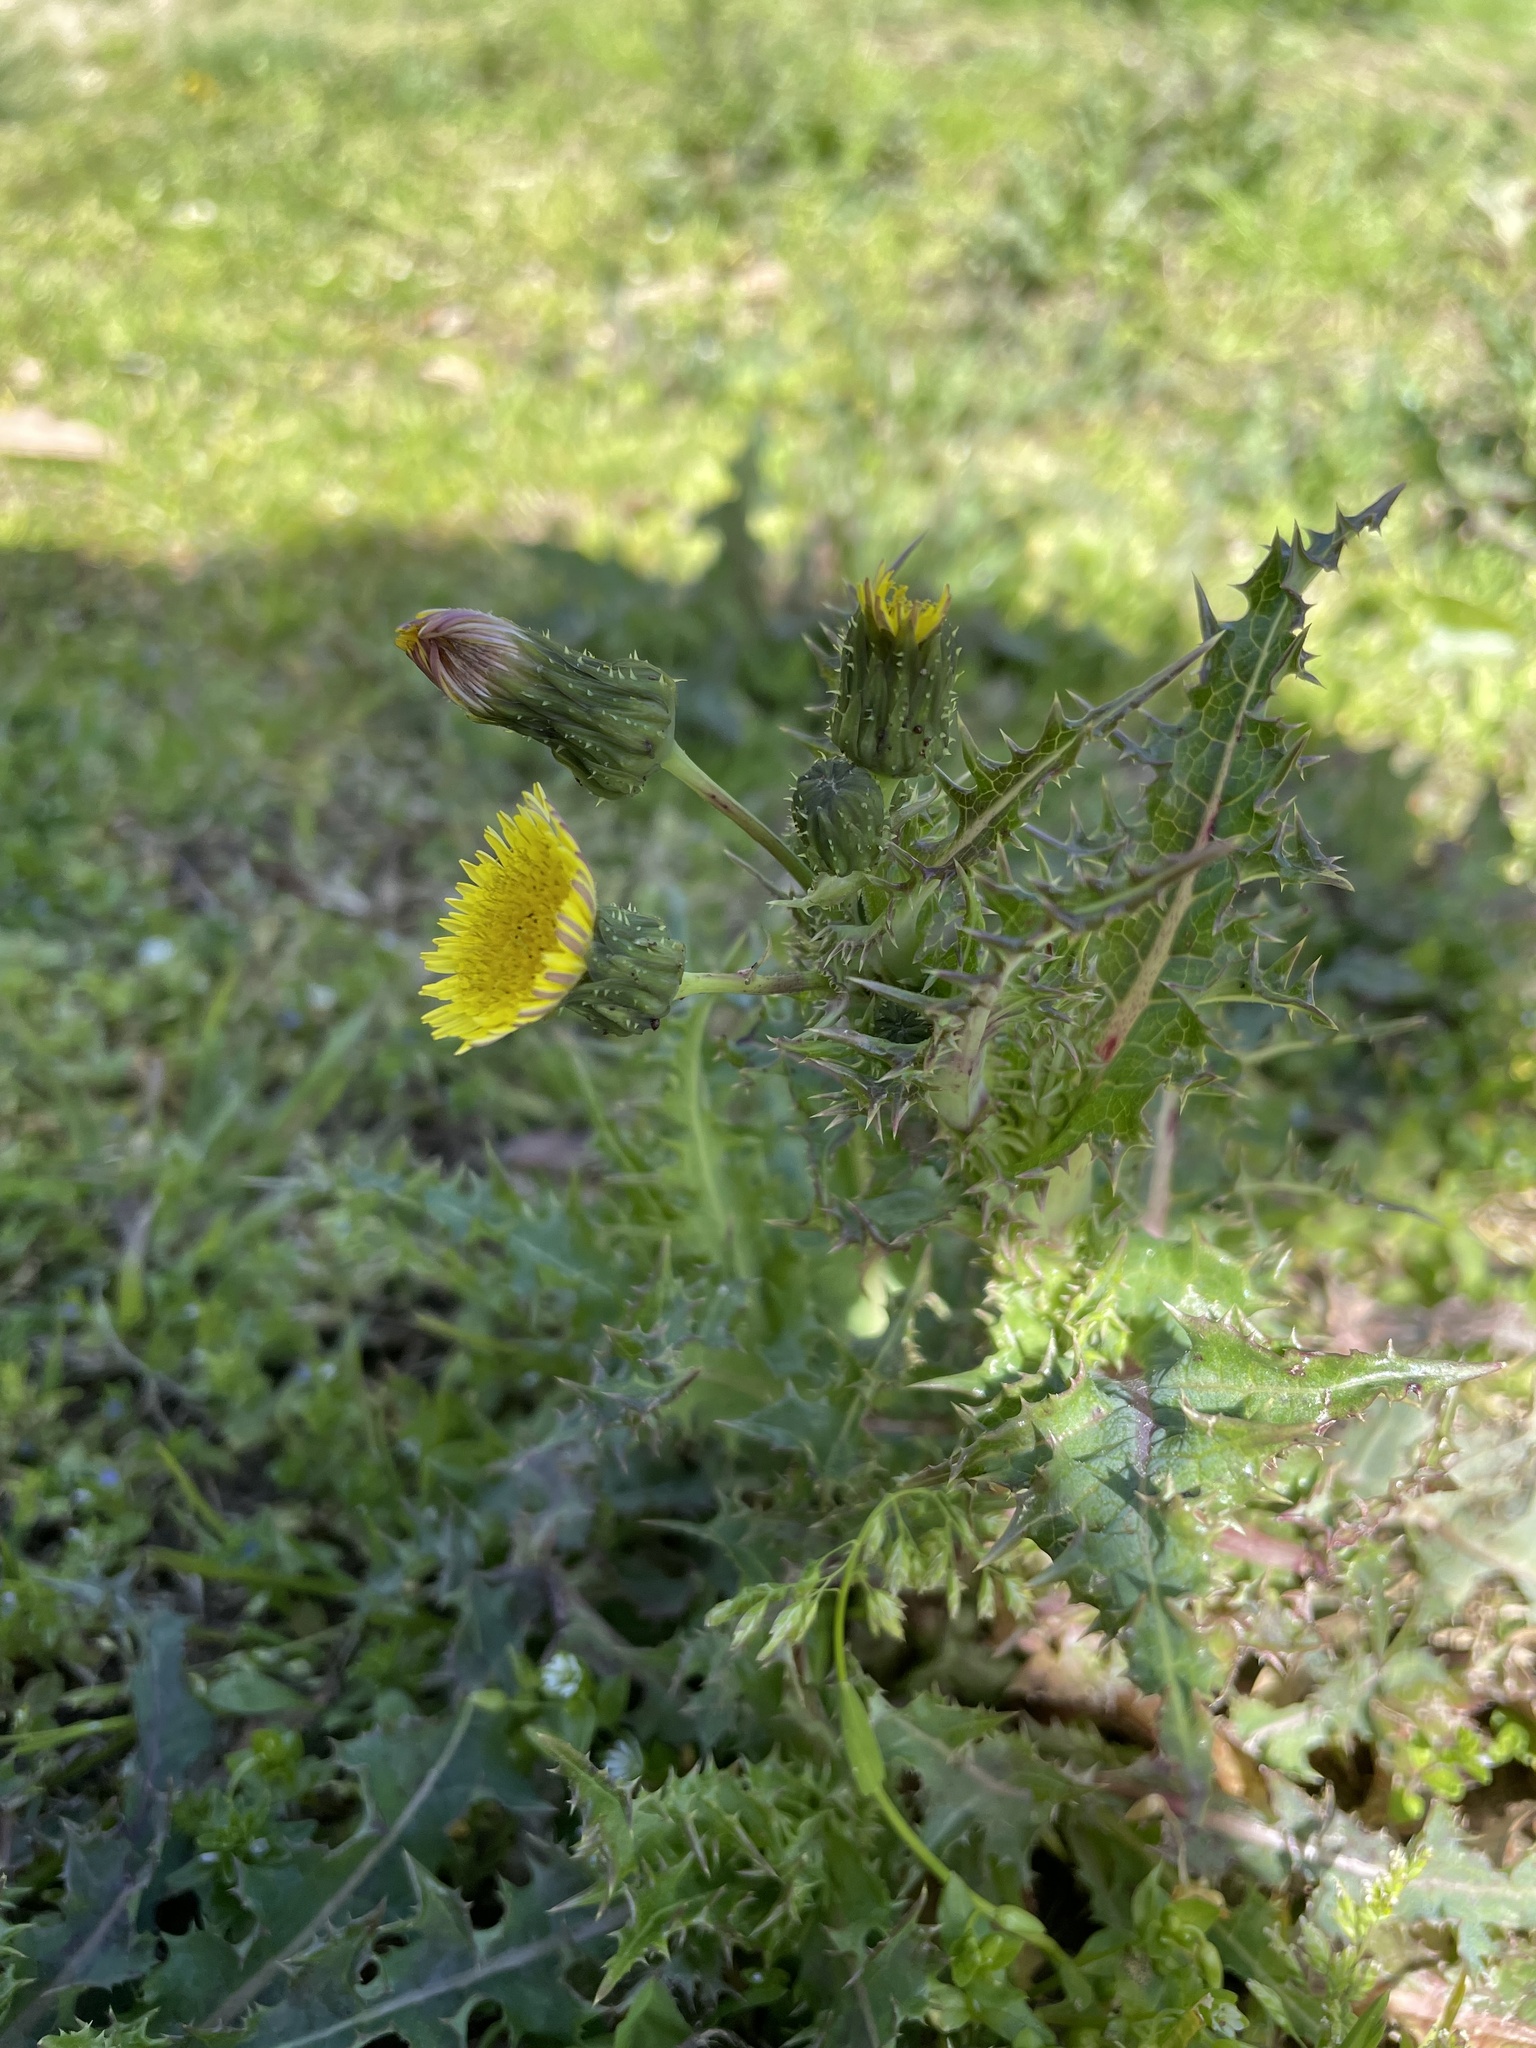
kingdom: Plantae
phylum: Tracheophyta
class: Magnoliopsida
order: Asterales
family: Asteraceae
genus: Sonchus
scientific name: Sonchus asper
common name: Prickly sow-thistle
